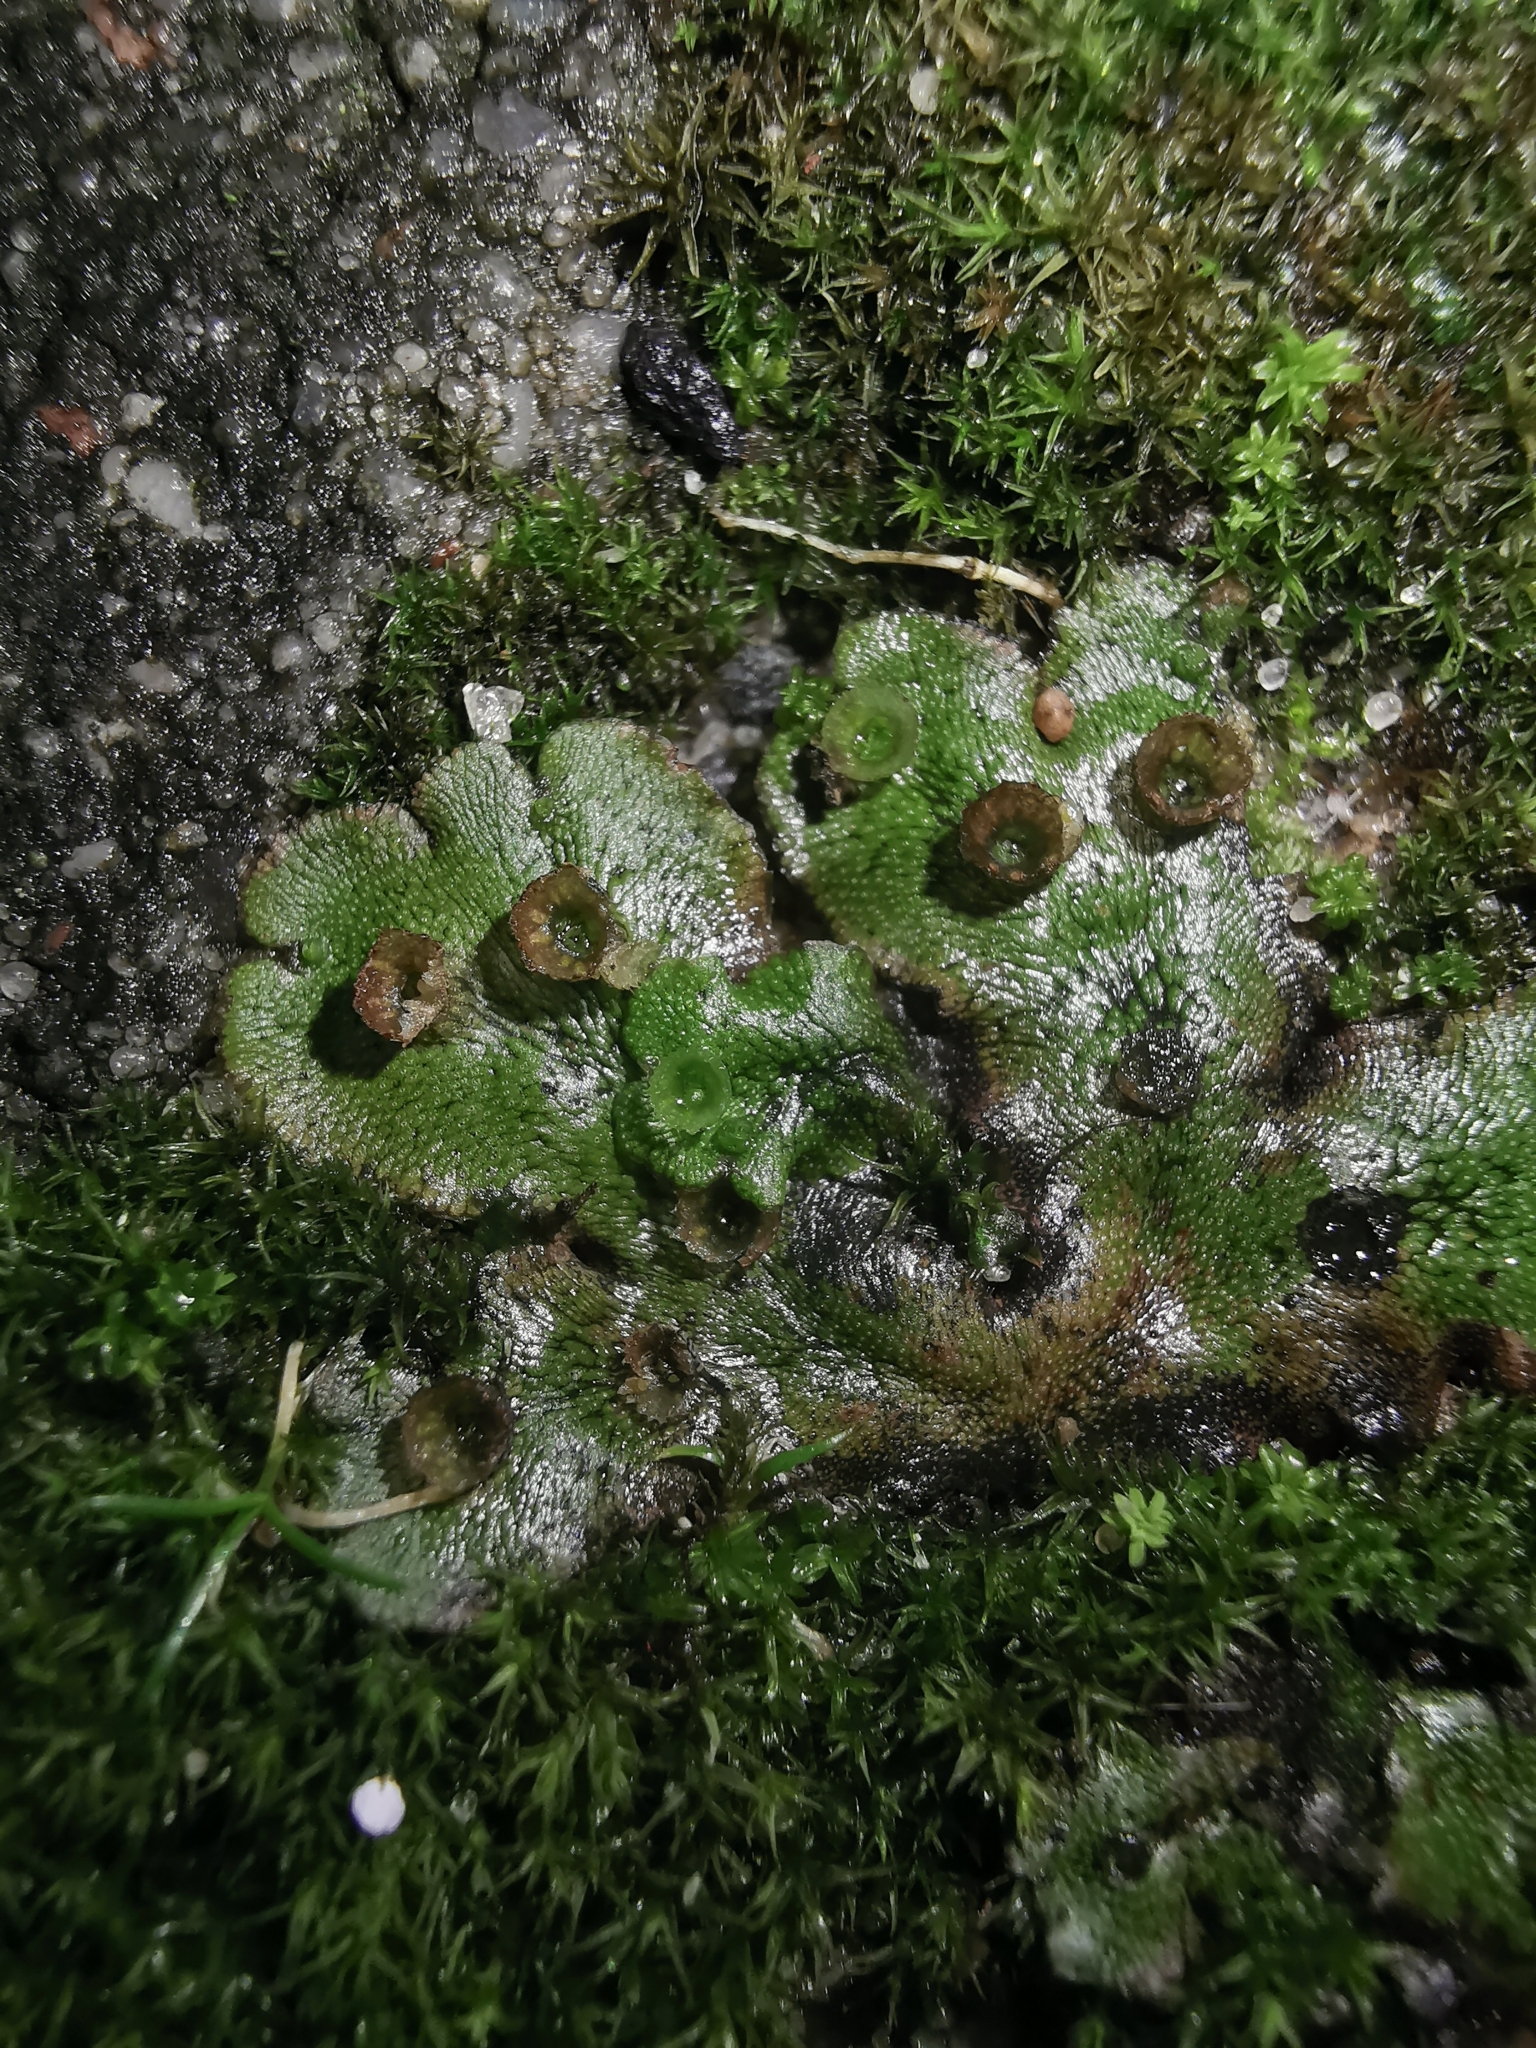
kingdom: Plantae
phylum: Marchantiophyta
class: Marchantiopsida
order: Marchantiales
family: Marchantiaceae
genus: Marchantia
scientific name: Marchantia polymorpha
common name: Common liverwort
